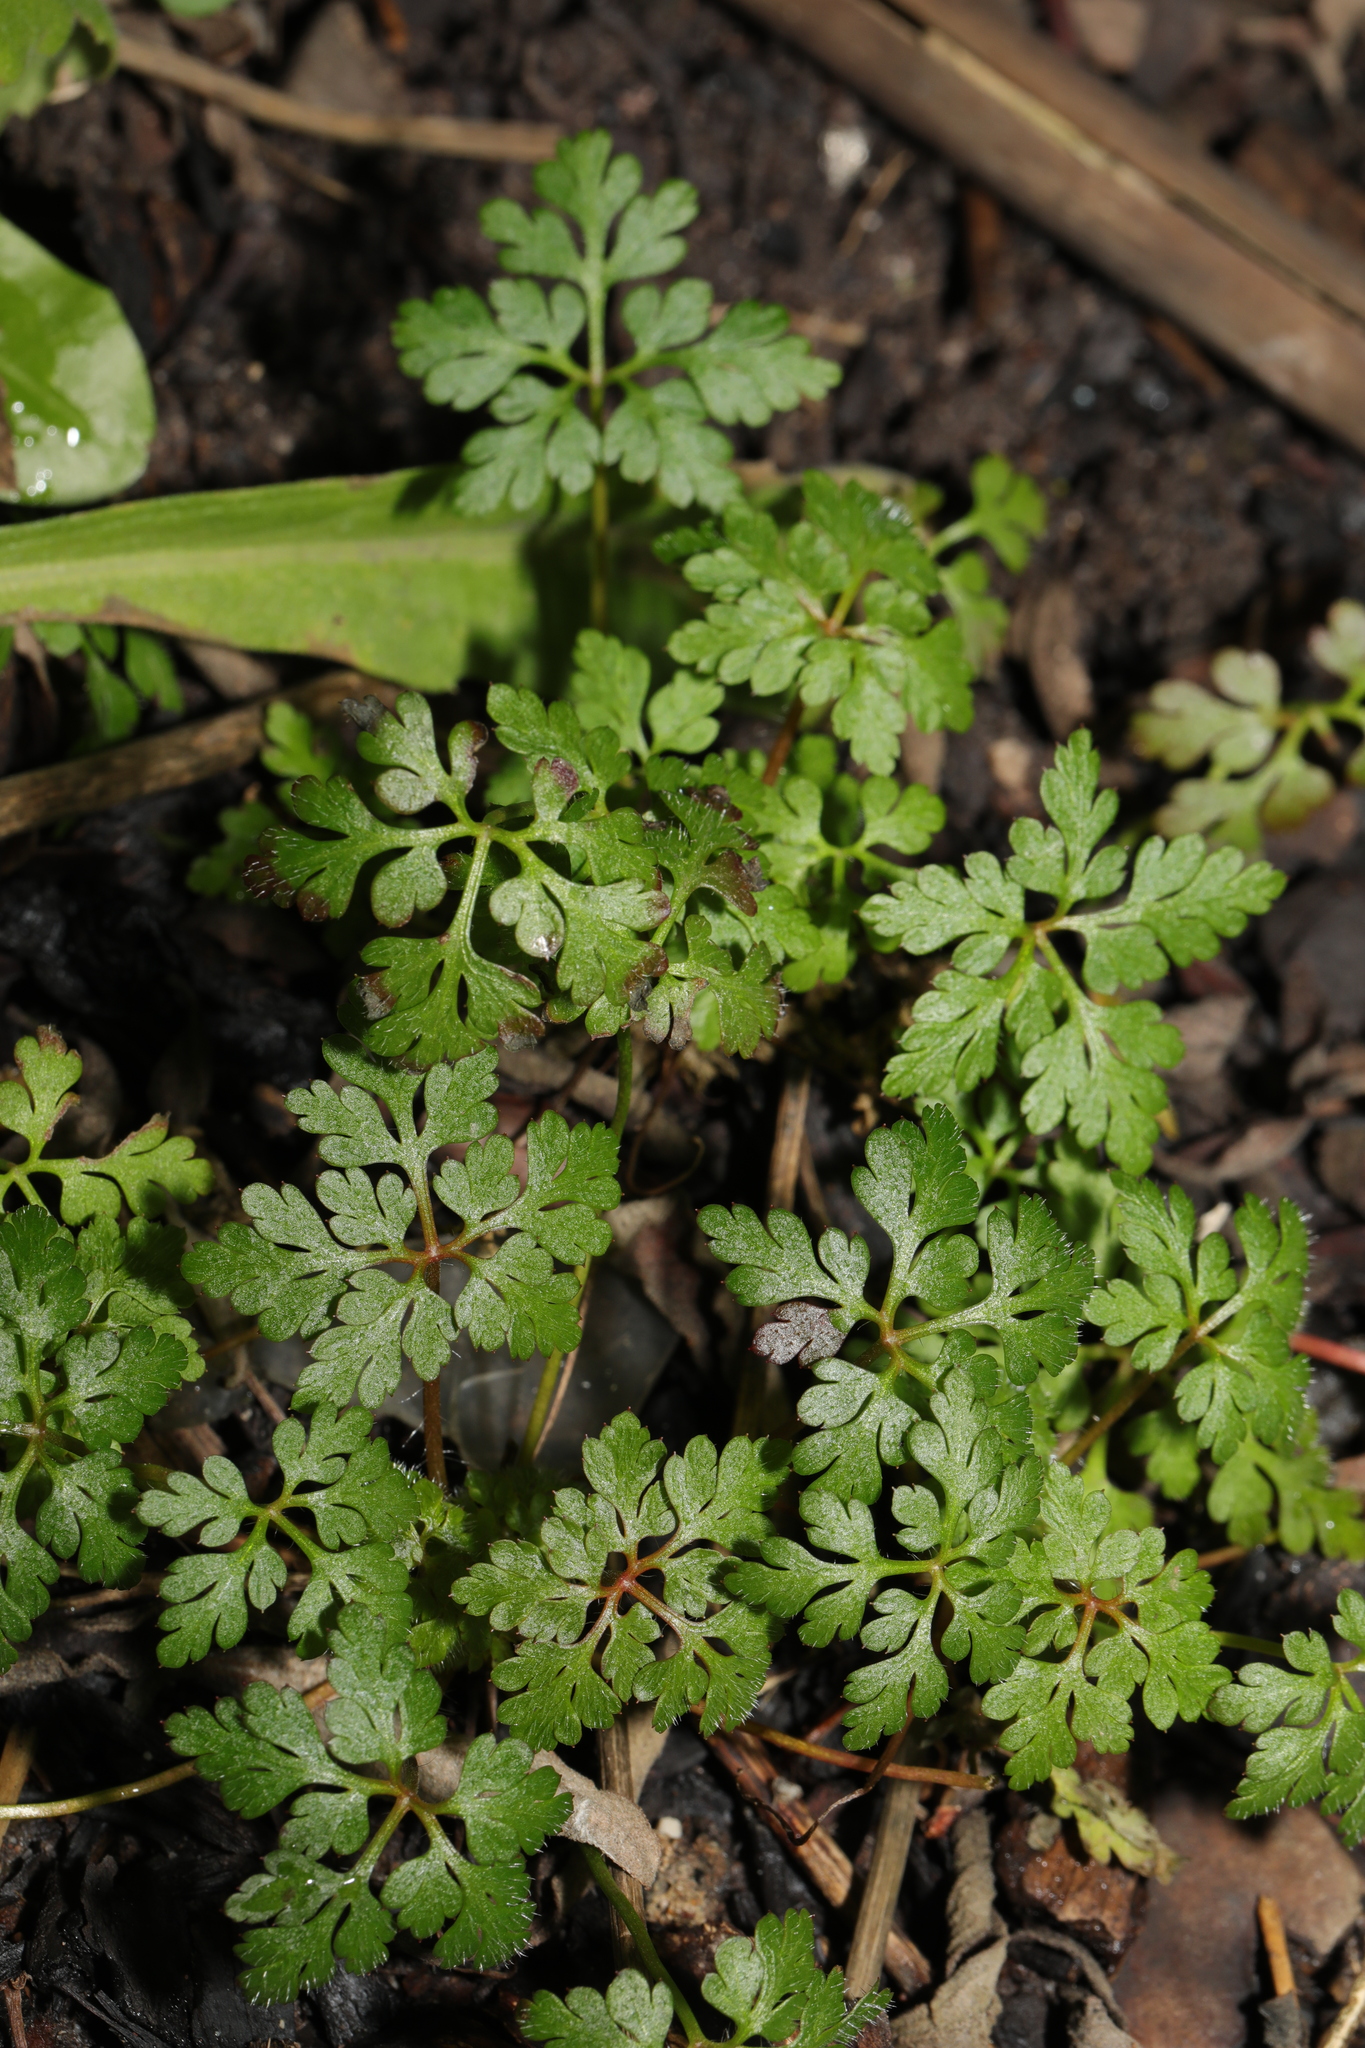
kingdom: Plantae
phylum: Tracheophyta
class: Magnoliopsida
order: Geraniales
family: Geraniaceae
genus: Geranium
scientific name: Geranium robertianum
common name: Herb-robert
